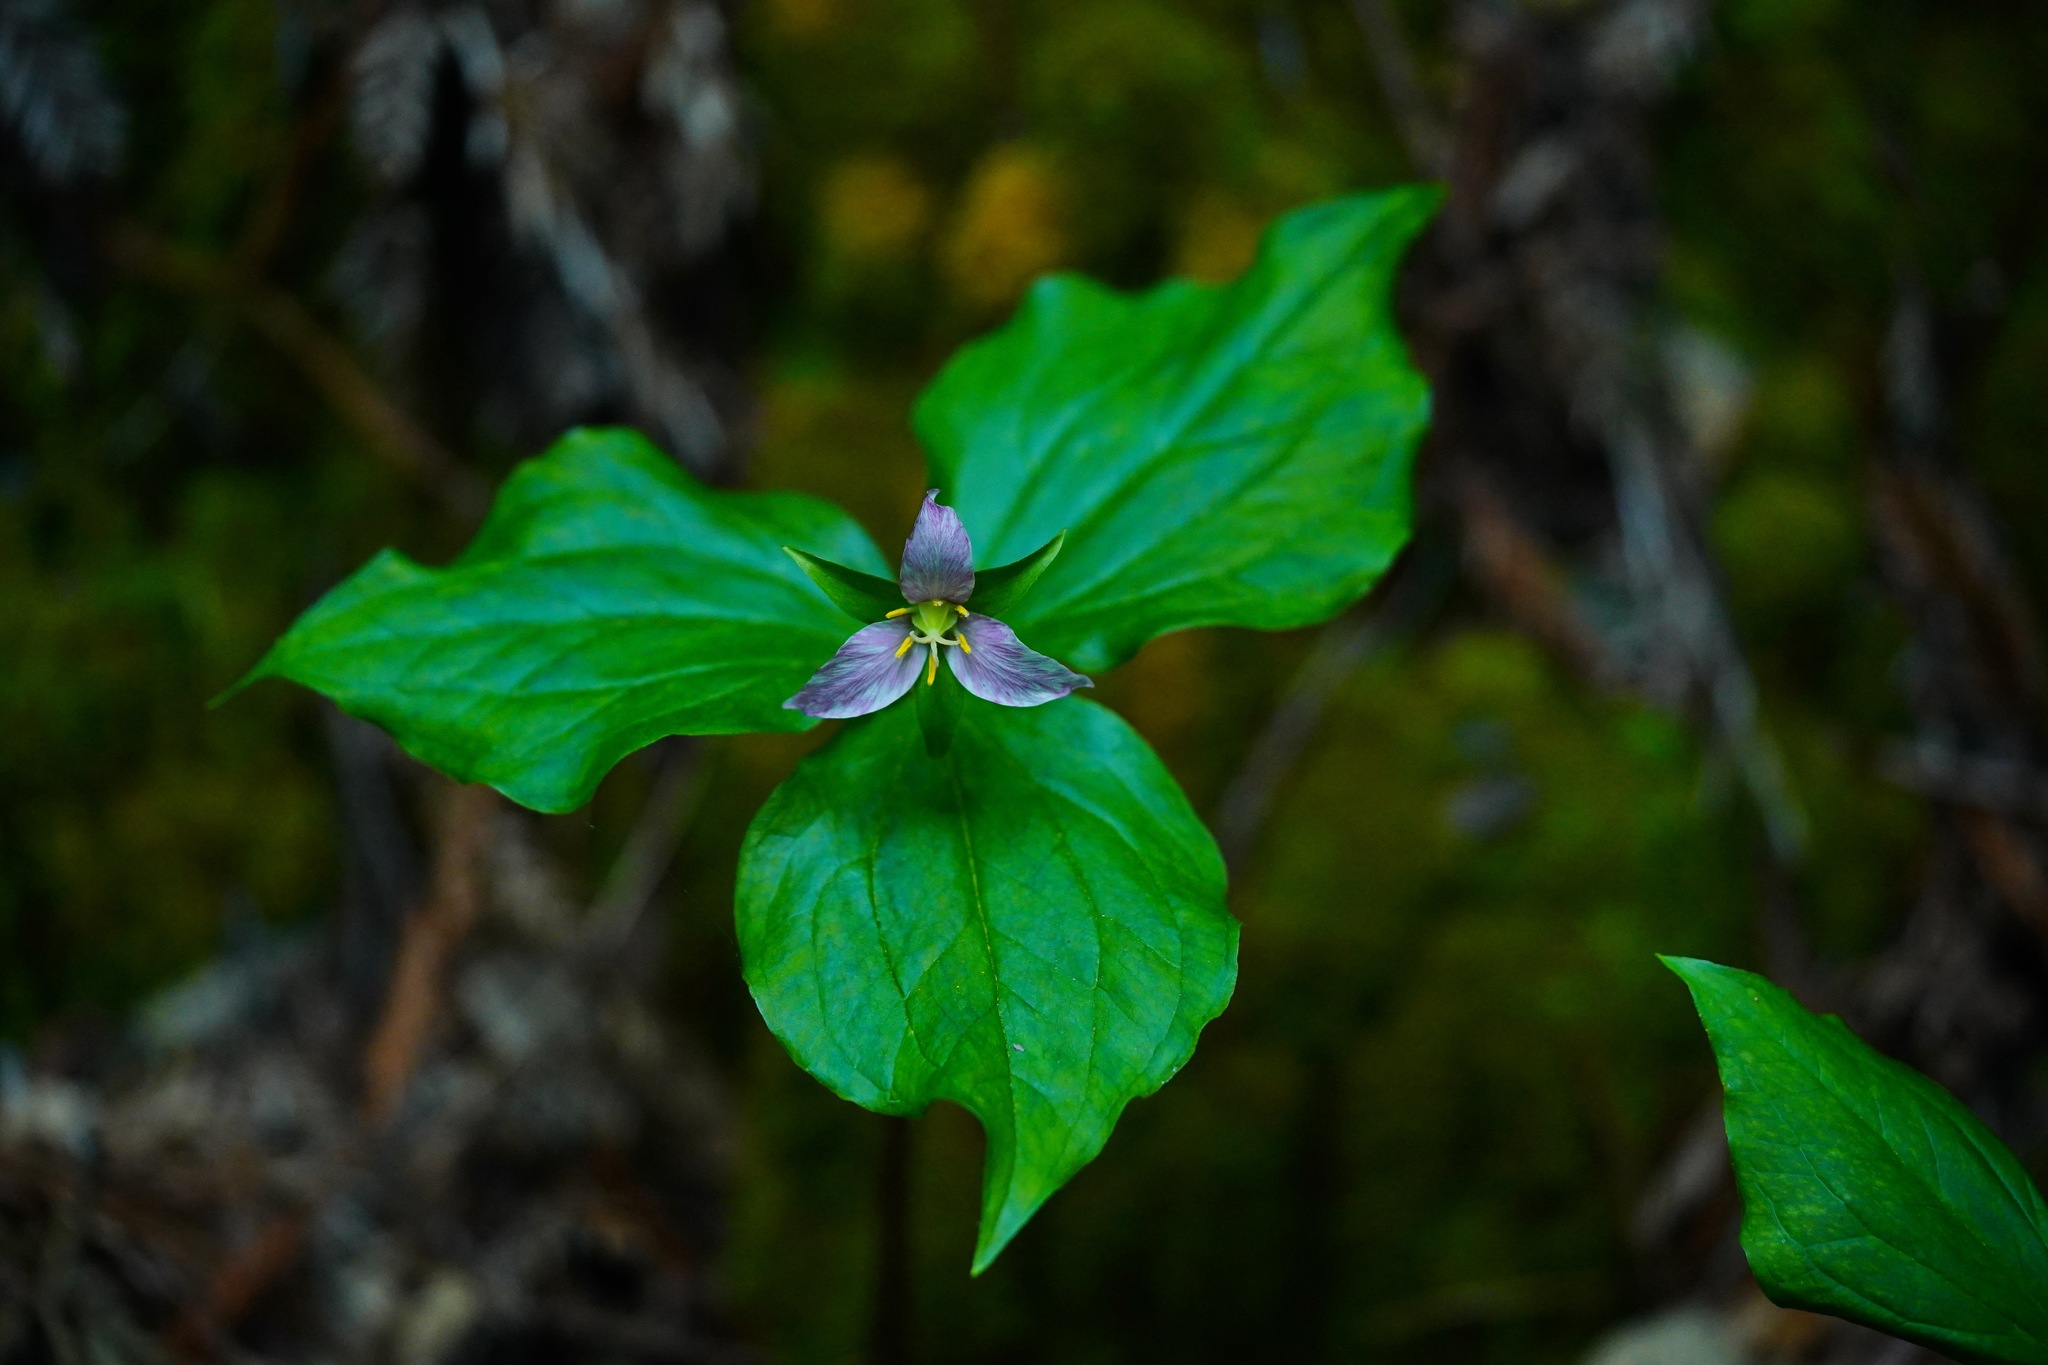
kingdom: Plantae
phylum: Tracheophyta
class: Liliopsida
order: Liliales
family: Melanthiaceae
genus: Trillium
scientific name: Trillium ovatum
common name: Pacific trillium
